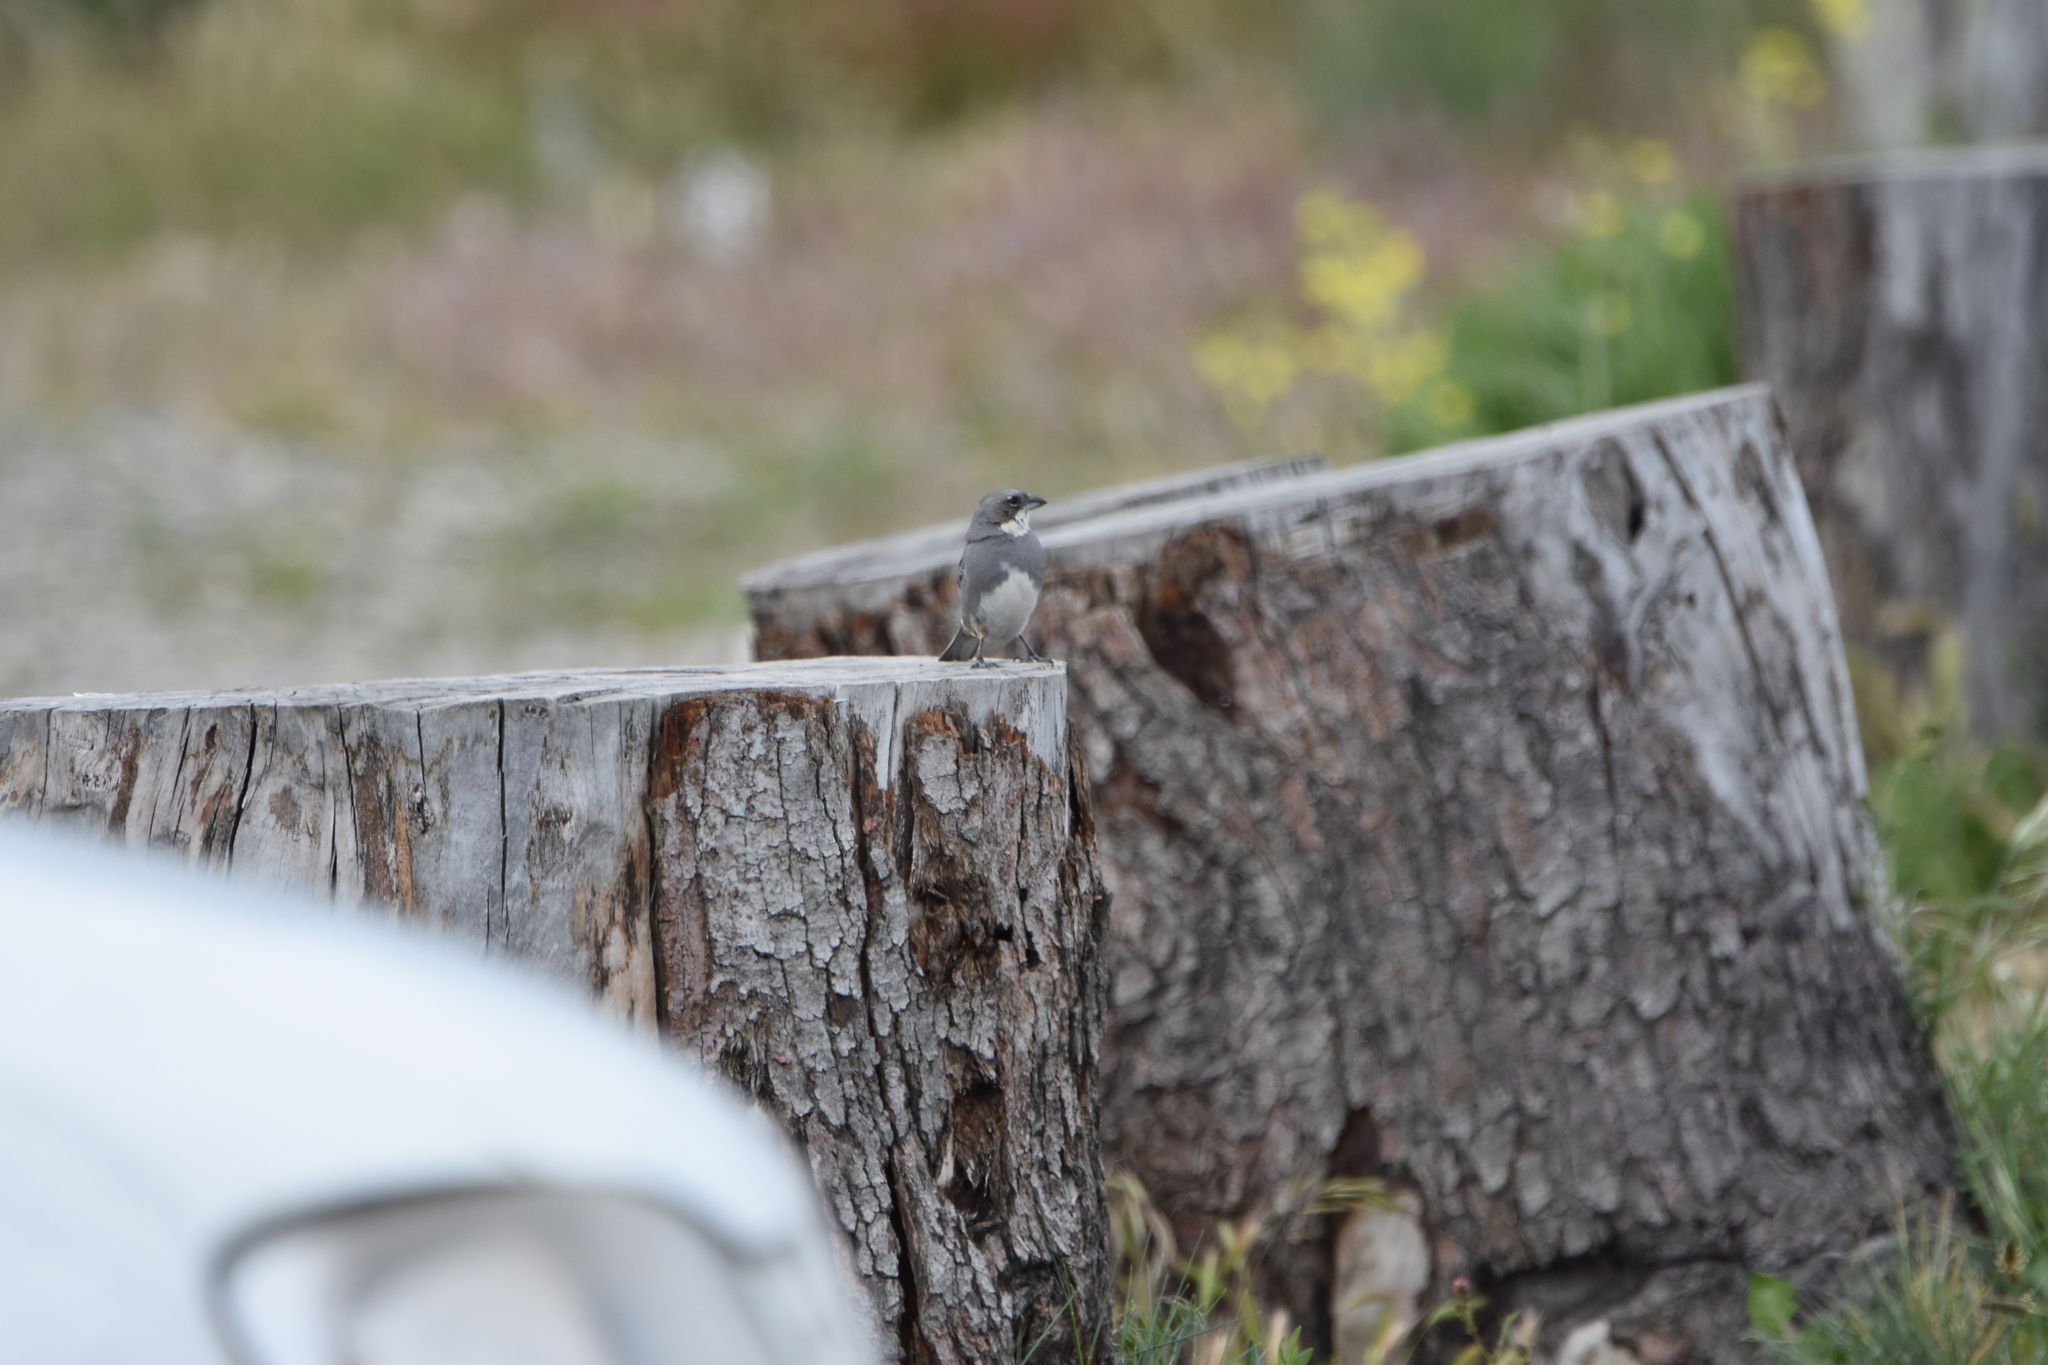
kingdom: Animalia
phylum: Chordata
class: Aves
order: Passeriformes
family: Thraupidae
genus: Diuca
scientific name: Diuca diuca
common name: Common diuca finch
